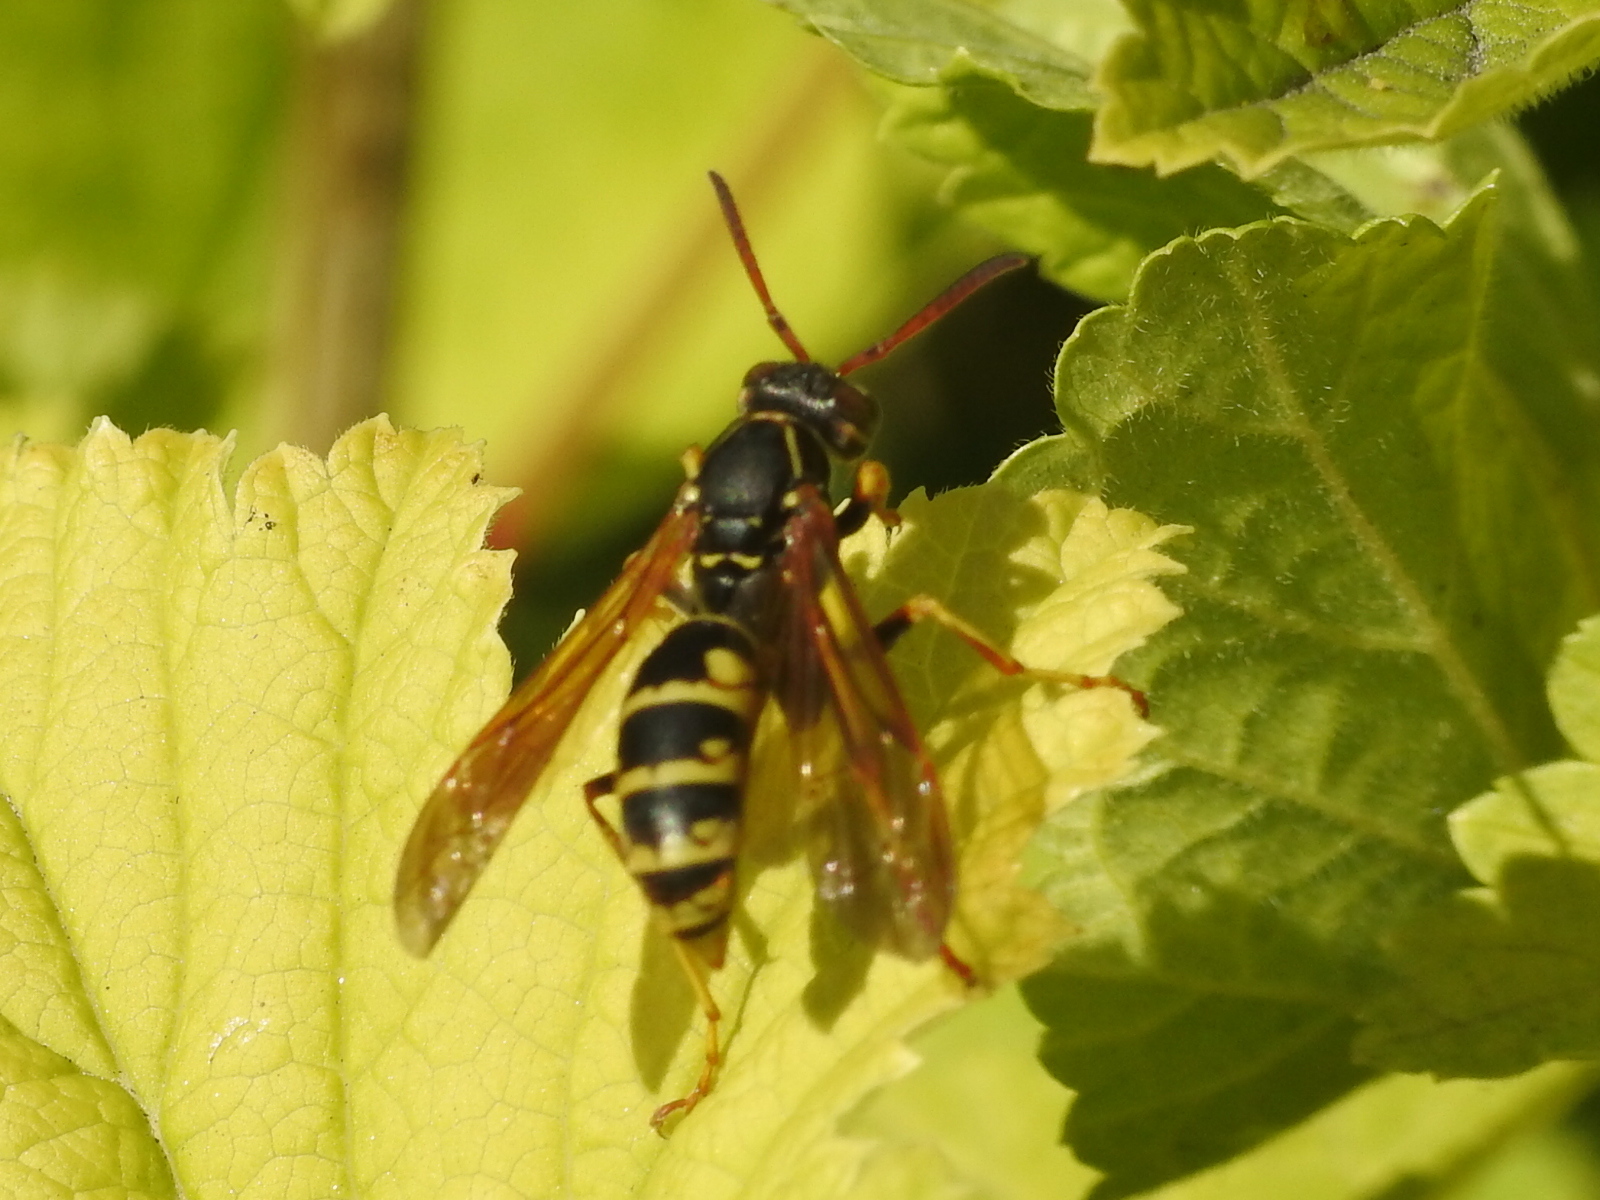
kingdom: Animalia
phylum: Arthropoda
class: Insecta
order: Hymenoptera
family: Eumenidae
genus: Polistes
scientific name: Polistes aurifer
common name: Paper wasp
